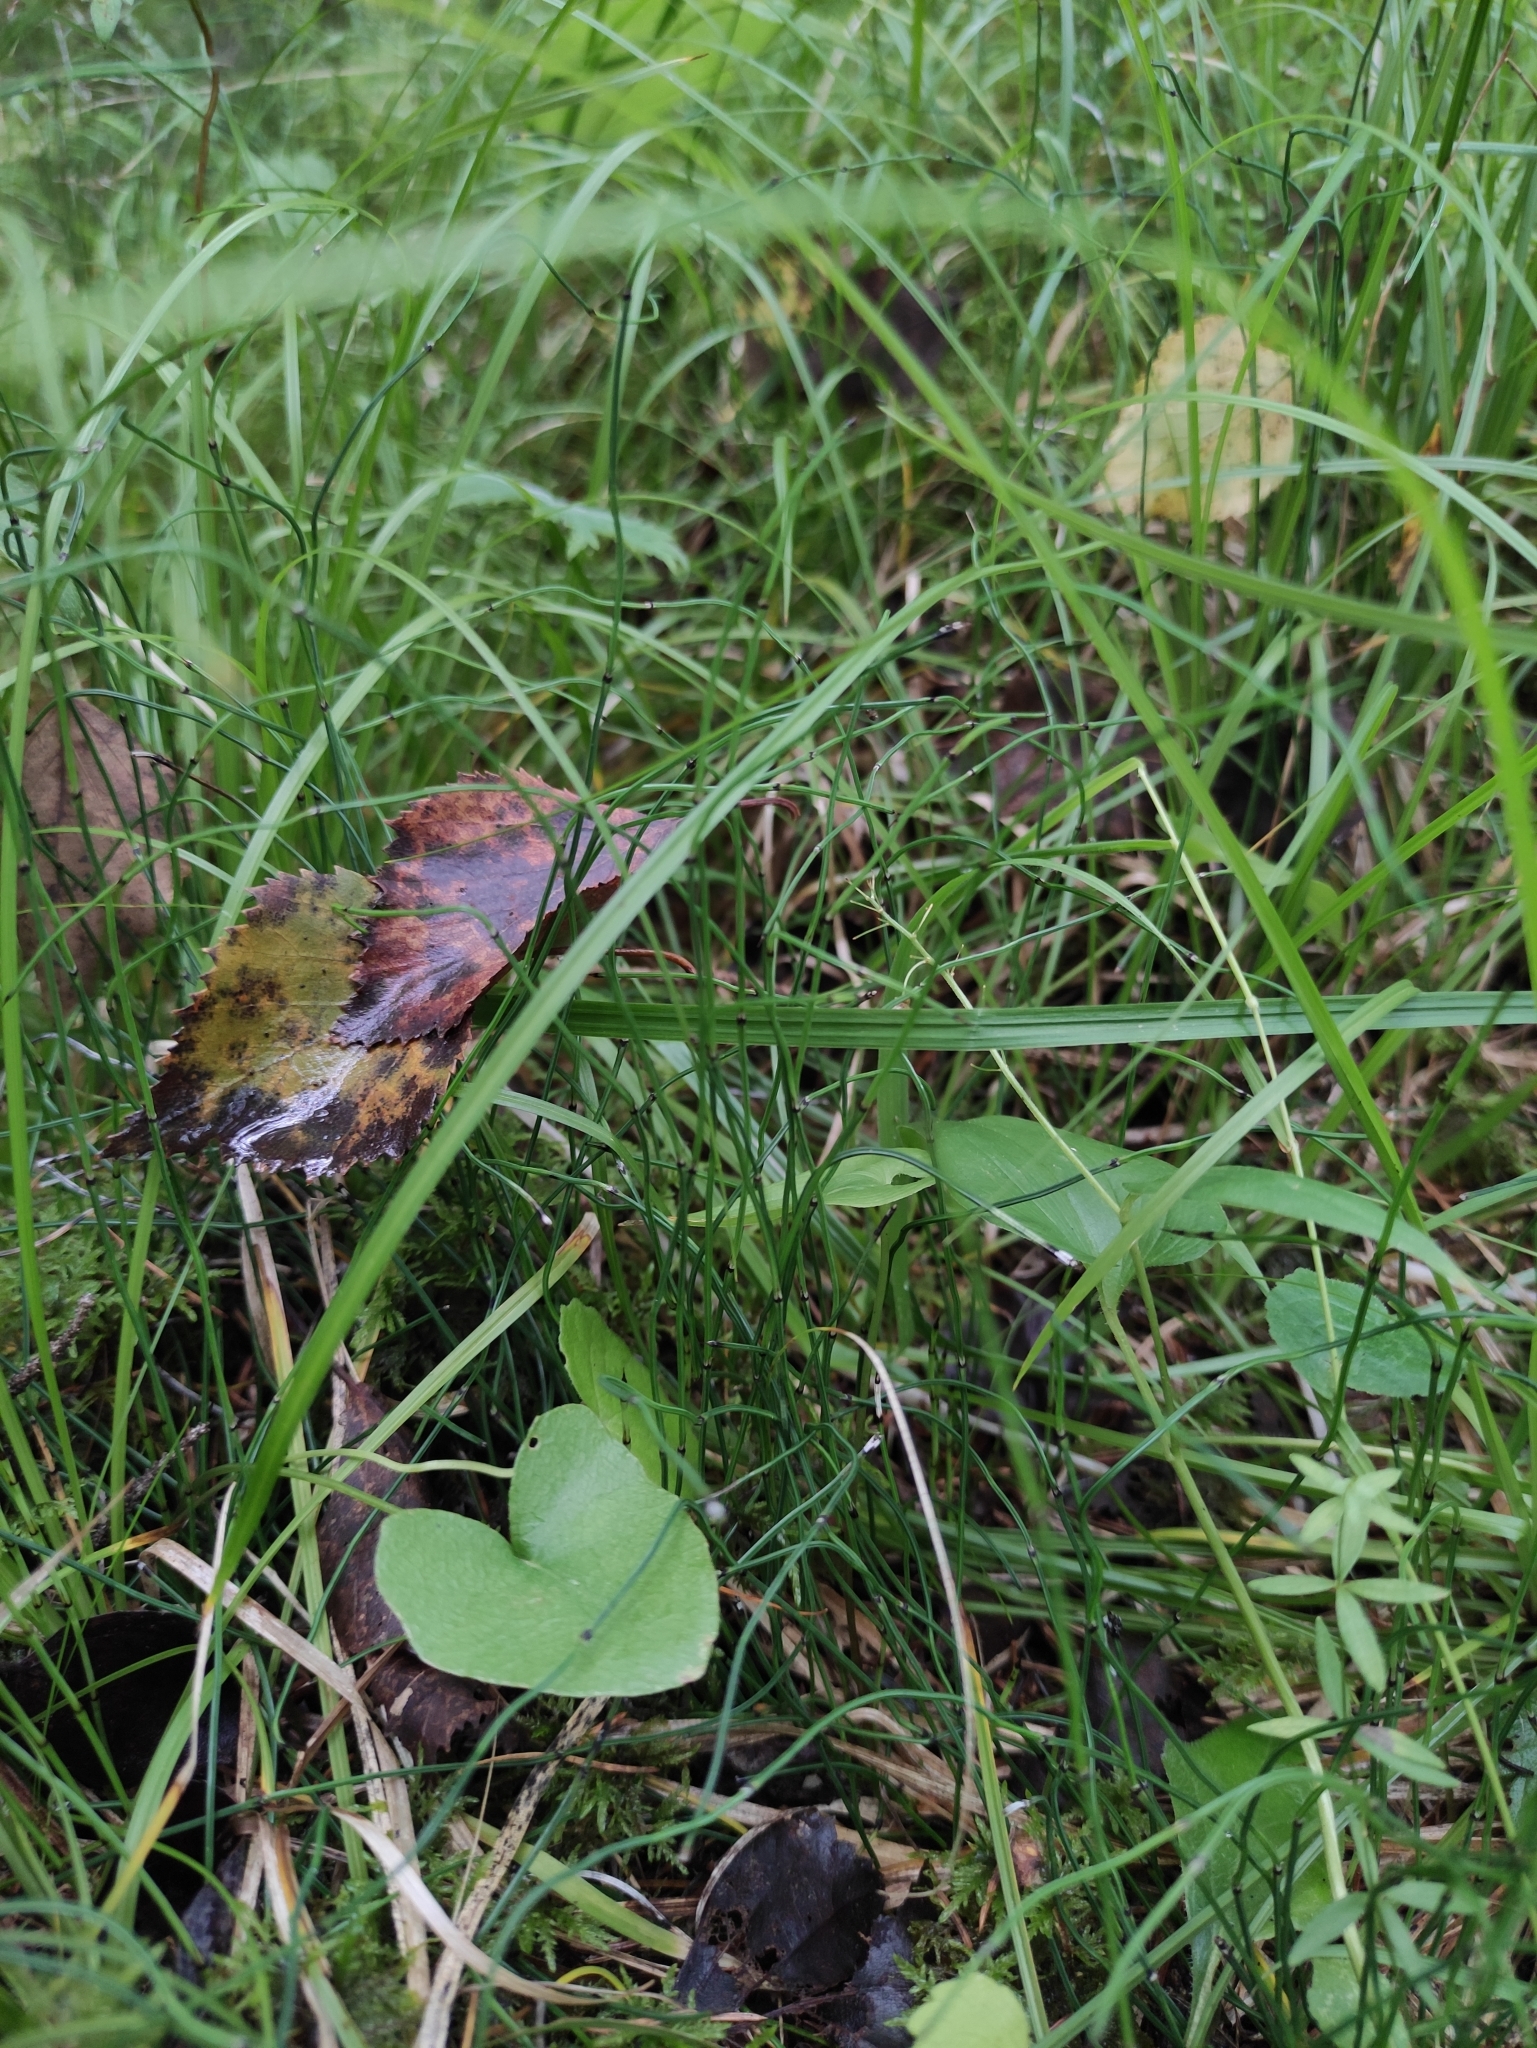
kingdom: Plantae
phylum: Tracheophyta
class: Magnoliopsida
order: Asterales
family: Asteraceae
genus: Ligularia
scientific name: Ligularia sibirica
